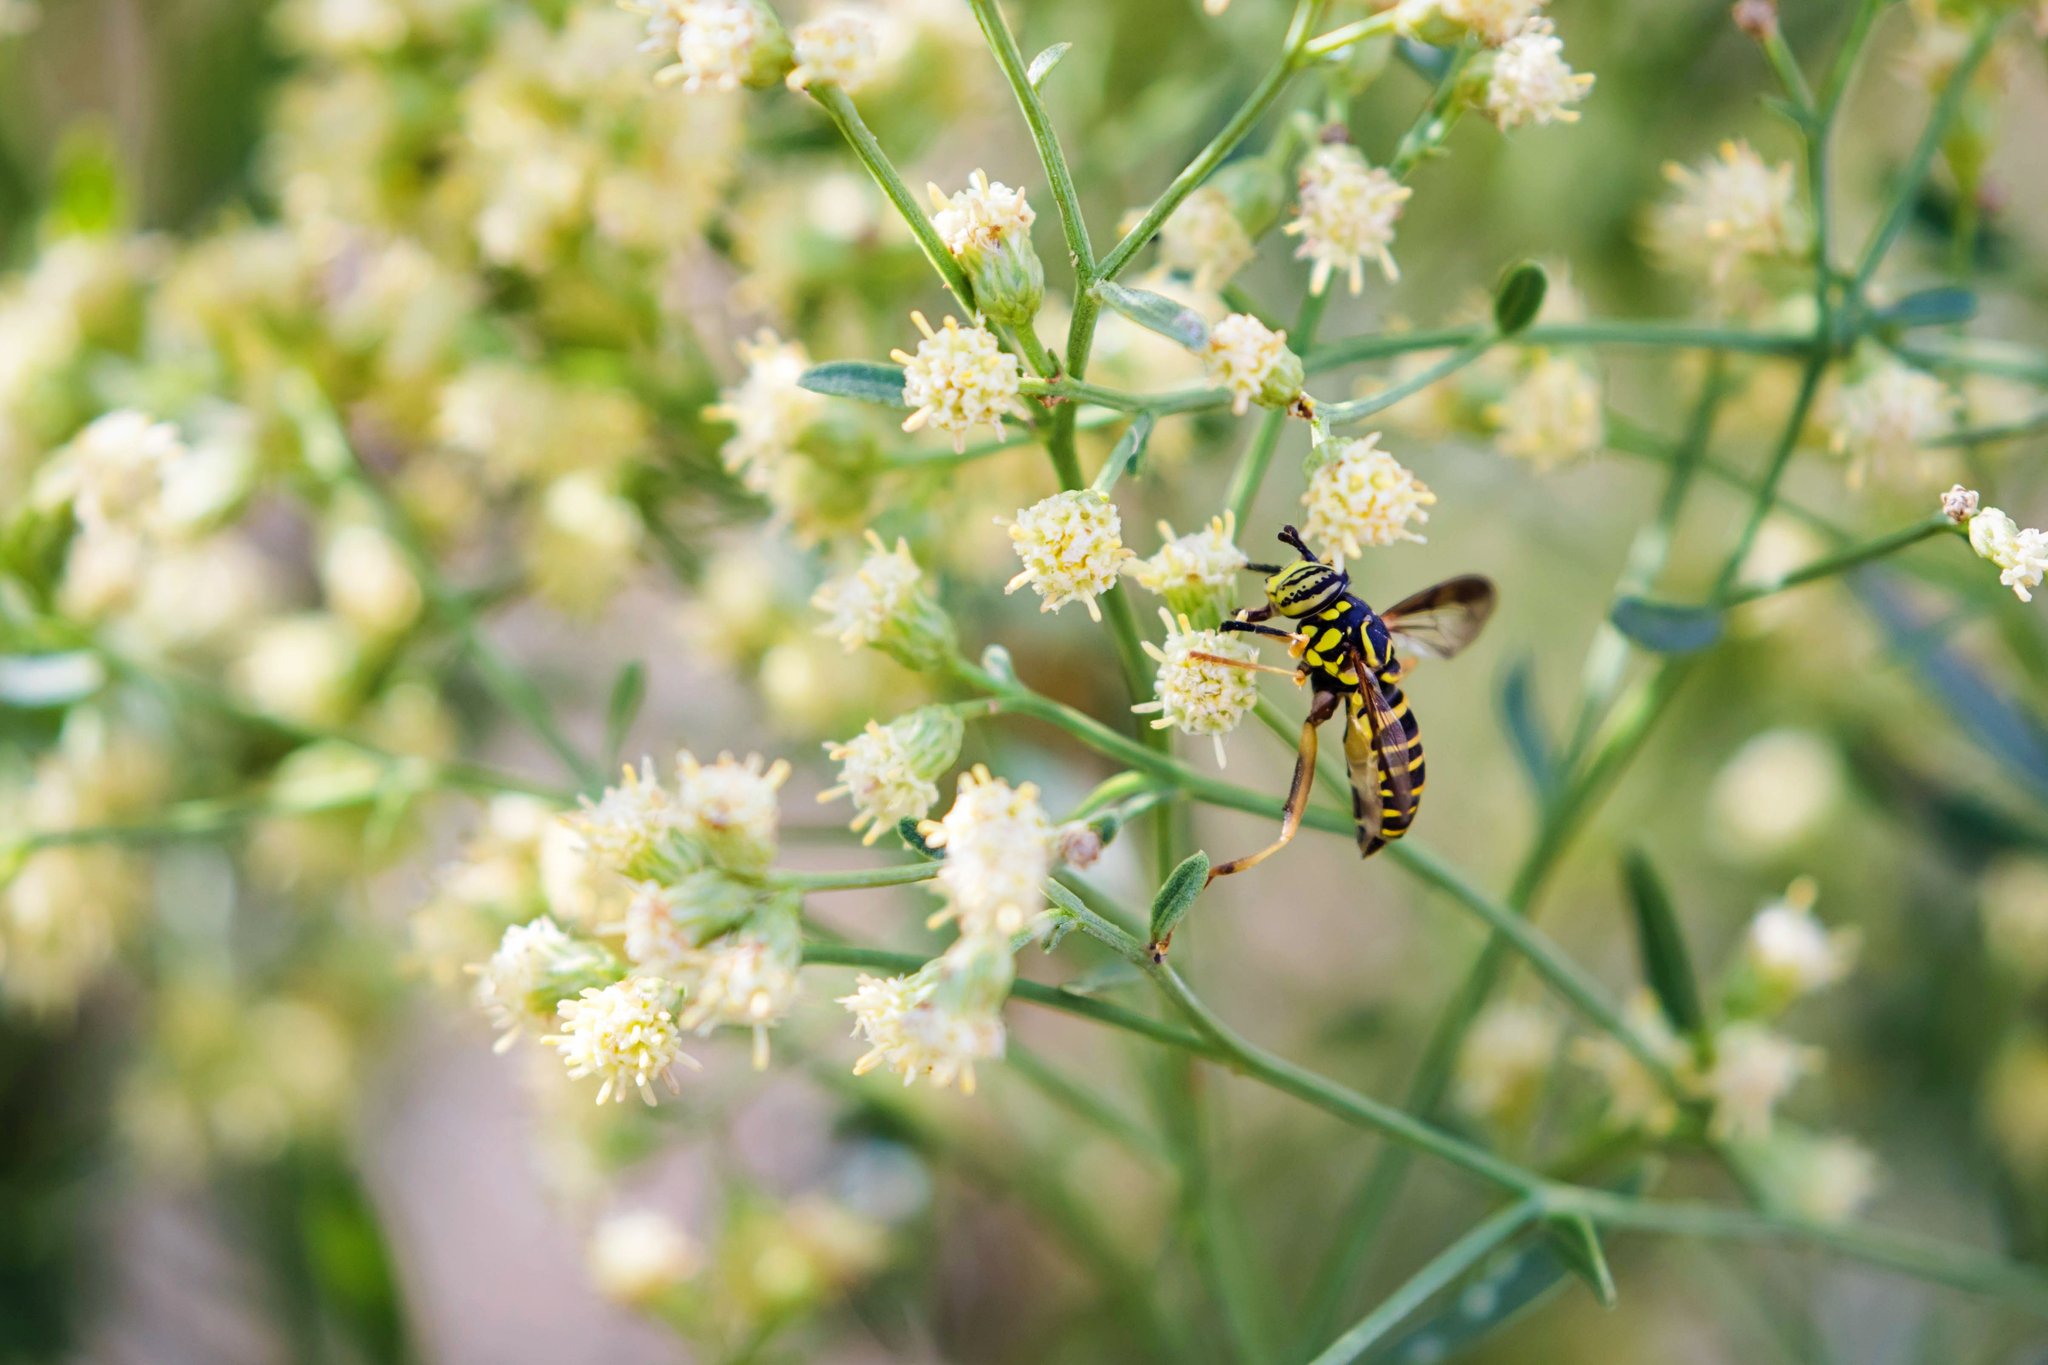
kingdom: Animalia
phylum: Arthropoda
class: Insecta
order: Diptera
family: Syrphidae
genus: Spilomyia
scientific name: Spilomyia longicornis
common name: Eastern hornet fly
